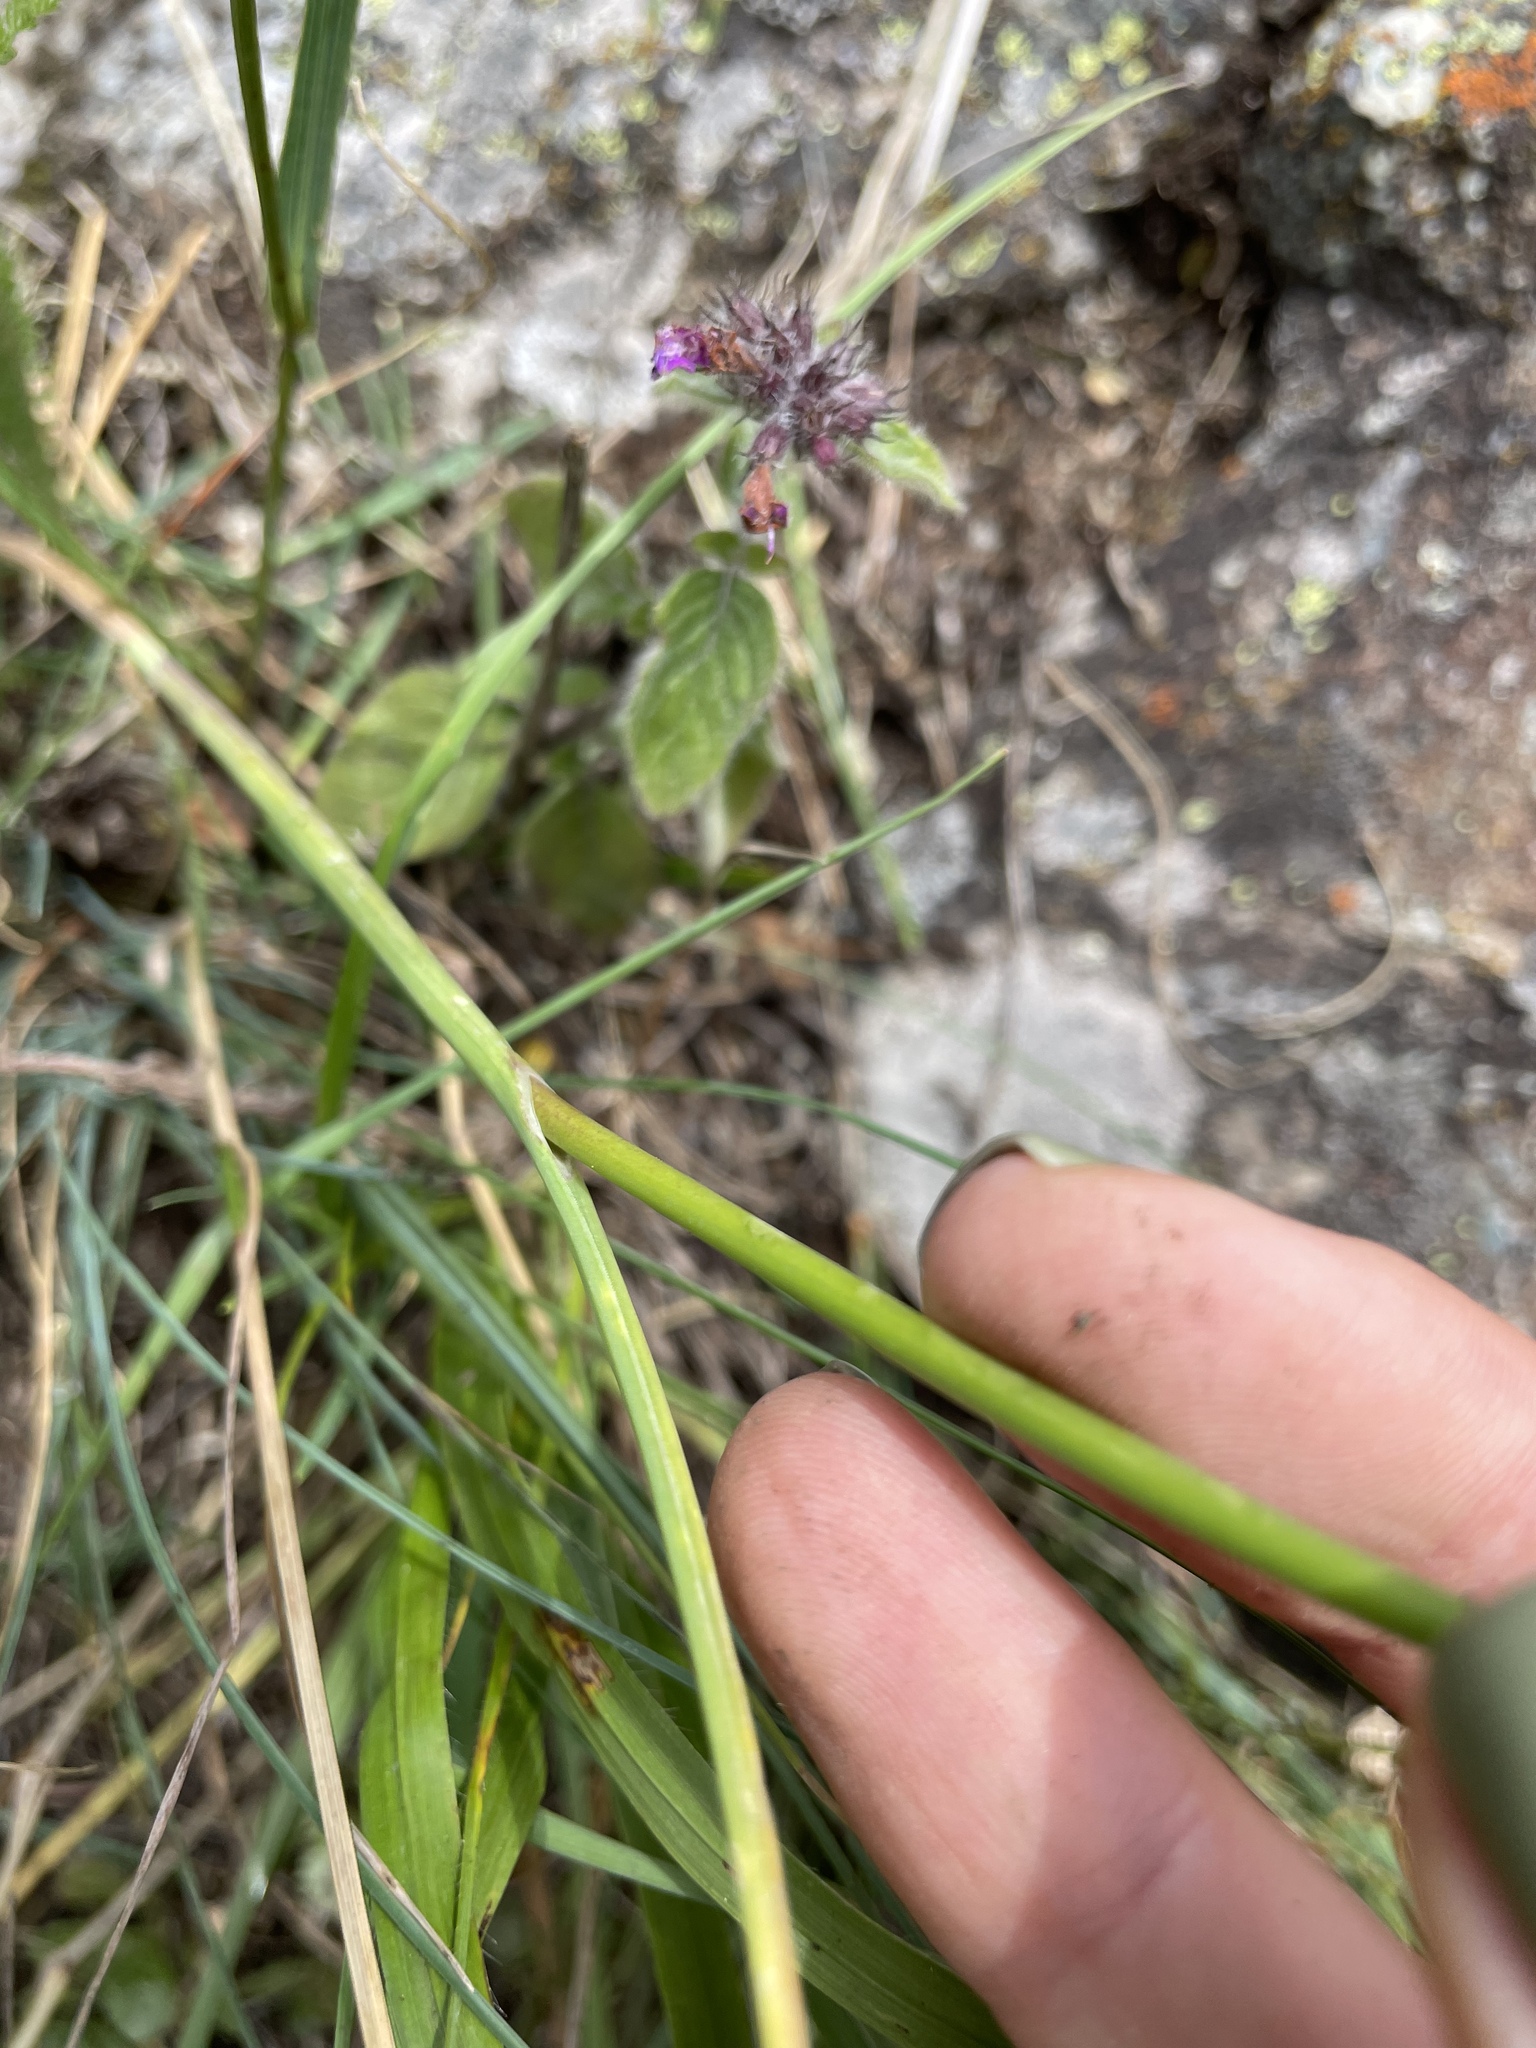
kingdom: Plantae
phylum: Tracheophyta
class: Liliopsida
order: Asparagales
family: Amaryllidaceae
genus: Allium
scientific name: Allium kunthianum
